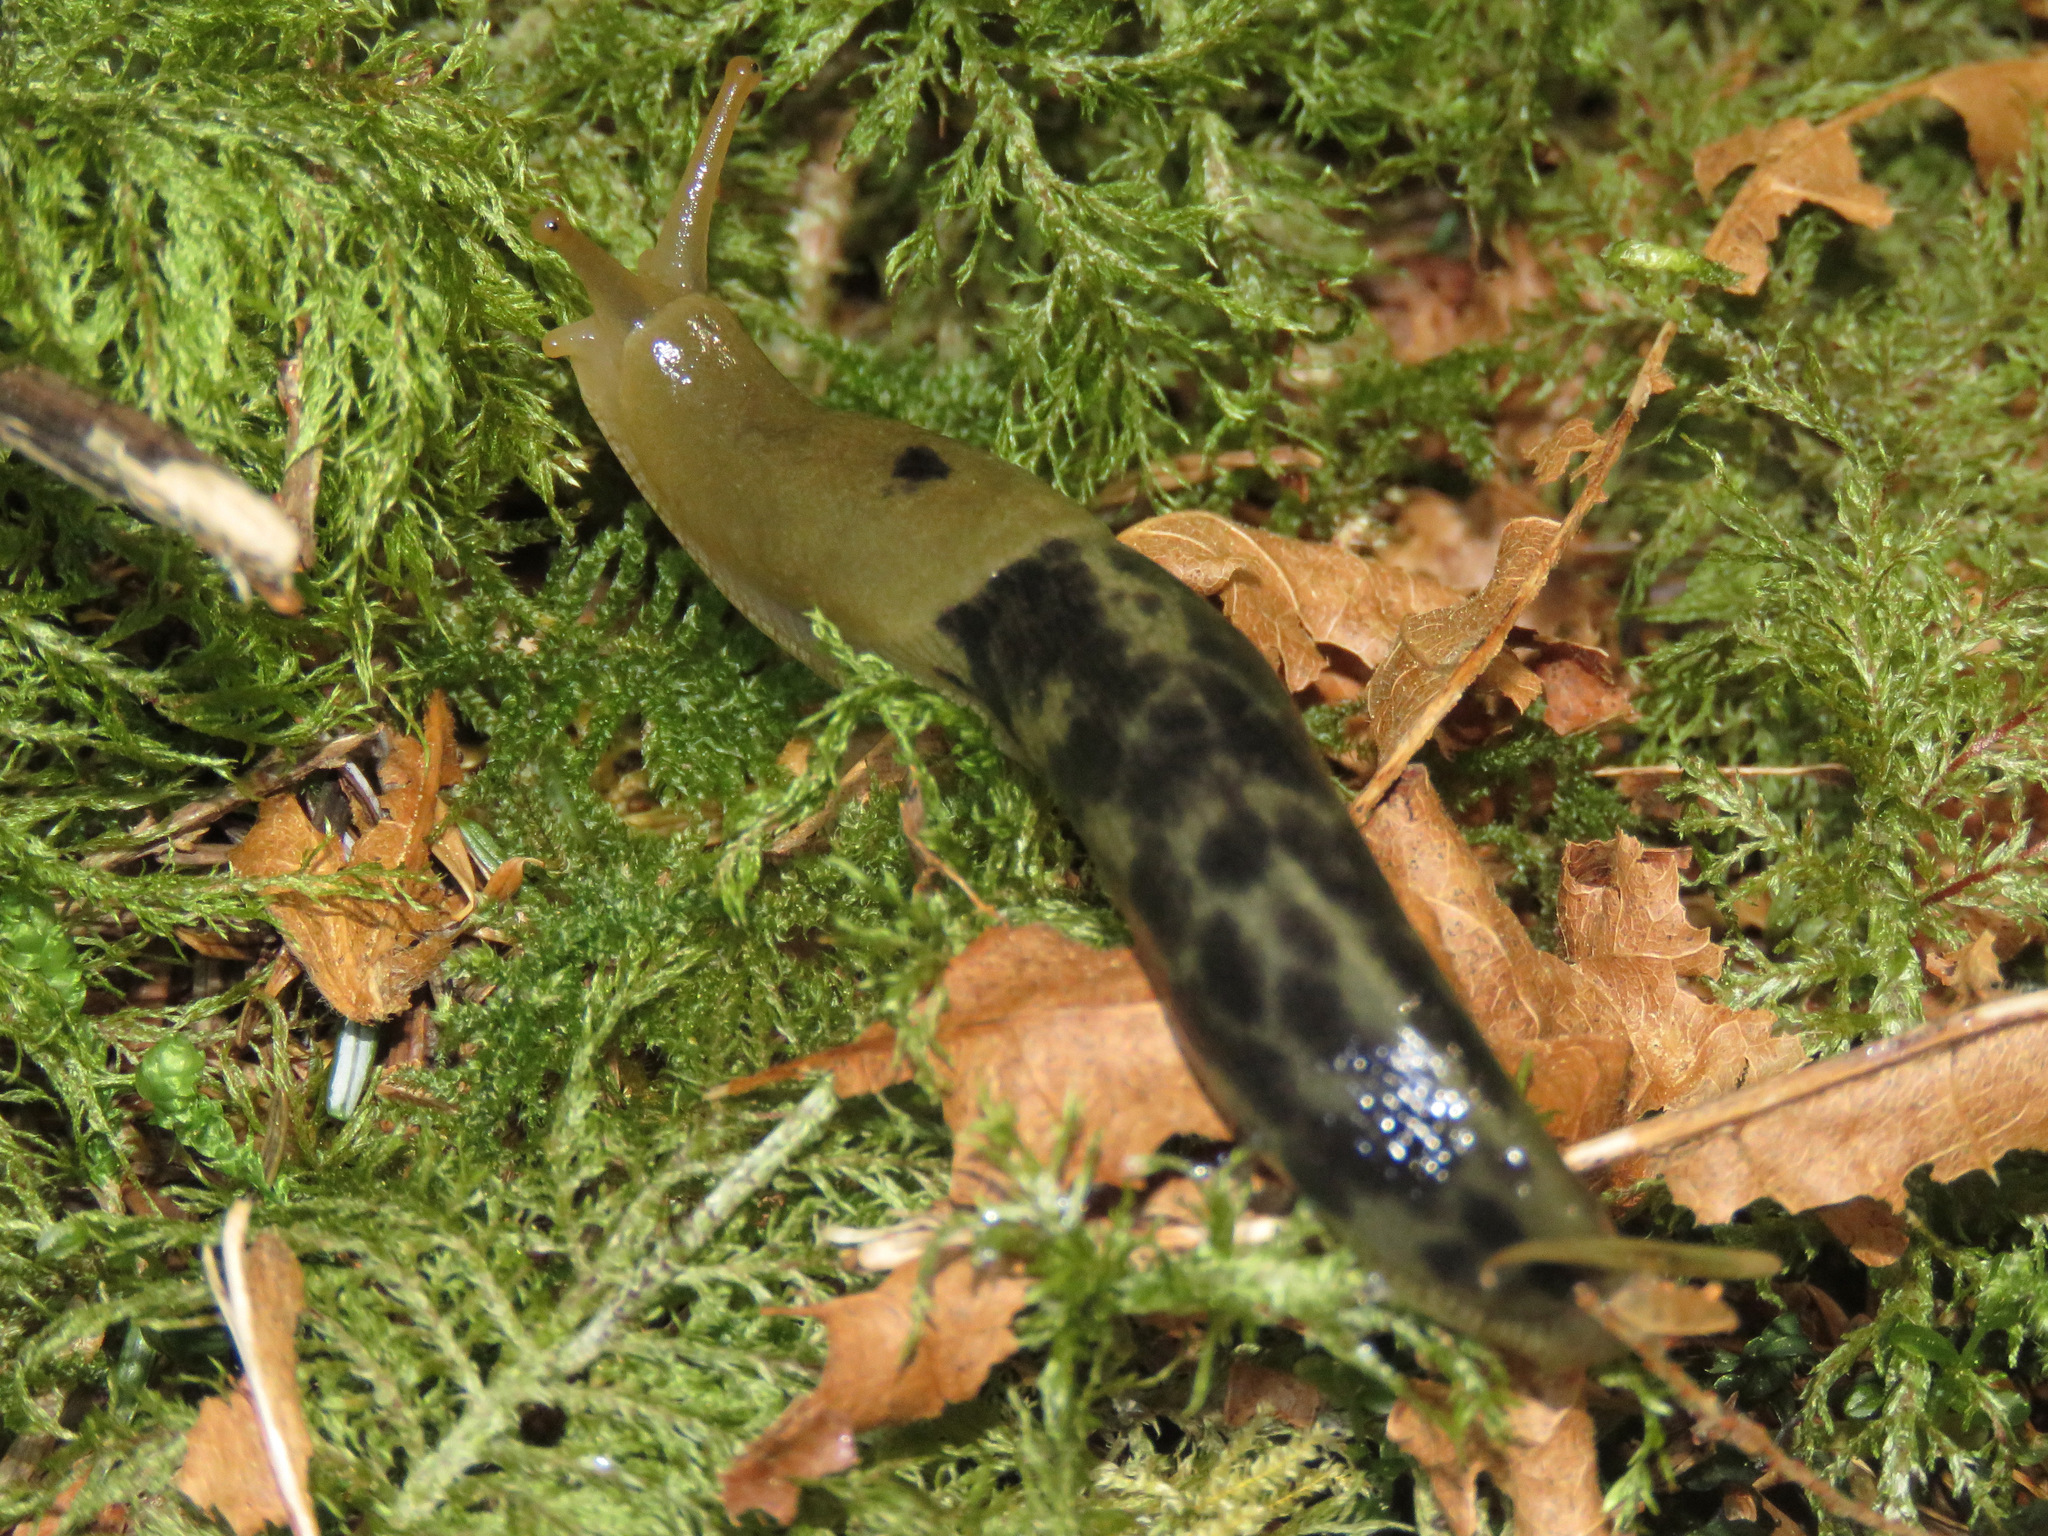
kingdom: Animalia
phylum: Mollusca
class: Gastropoda
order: Stylommatophora
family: Ariolimacidae
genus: Ariolimax
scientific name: Ariolimax columbianus
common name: Pacific banana slug
